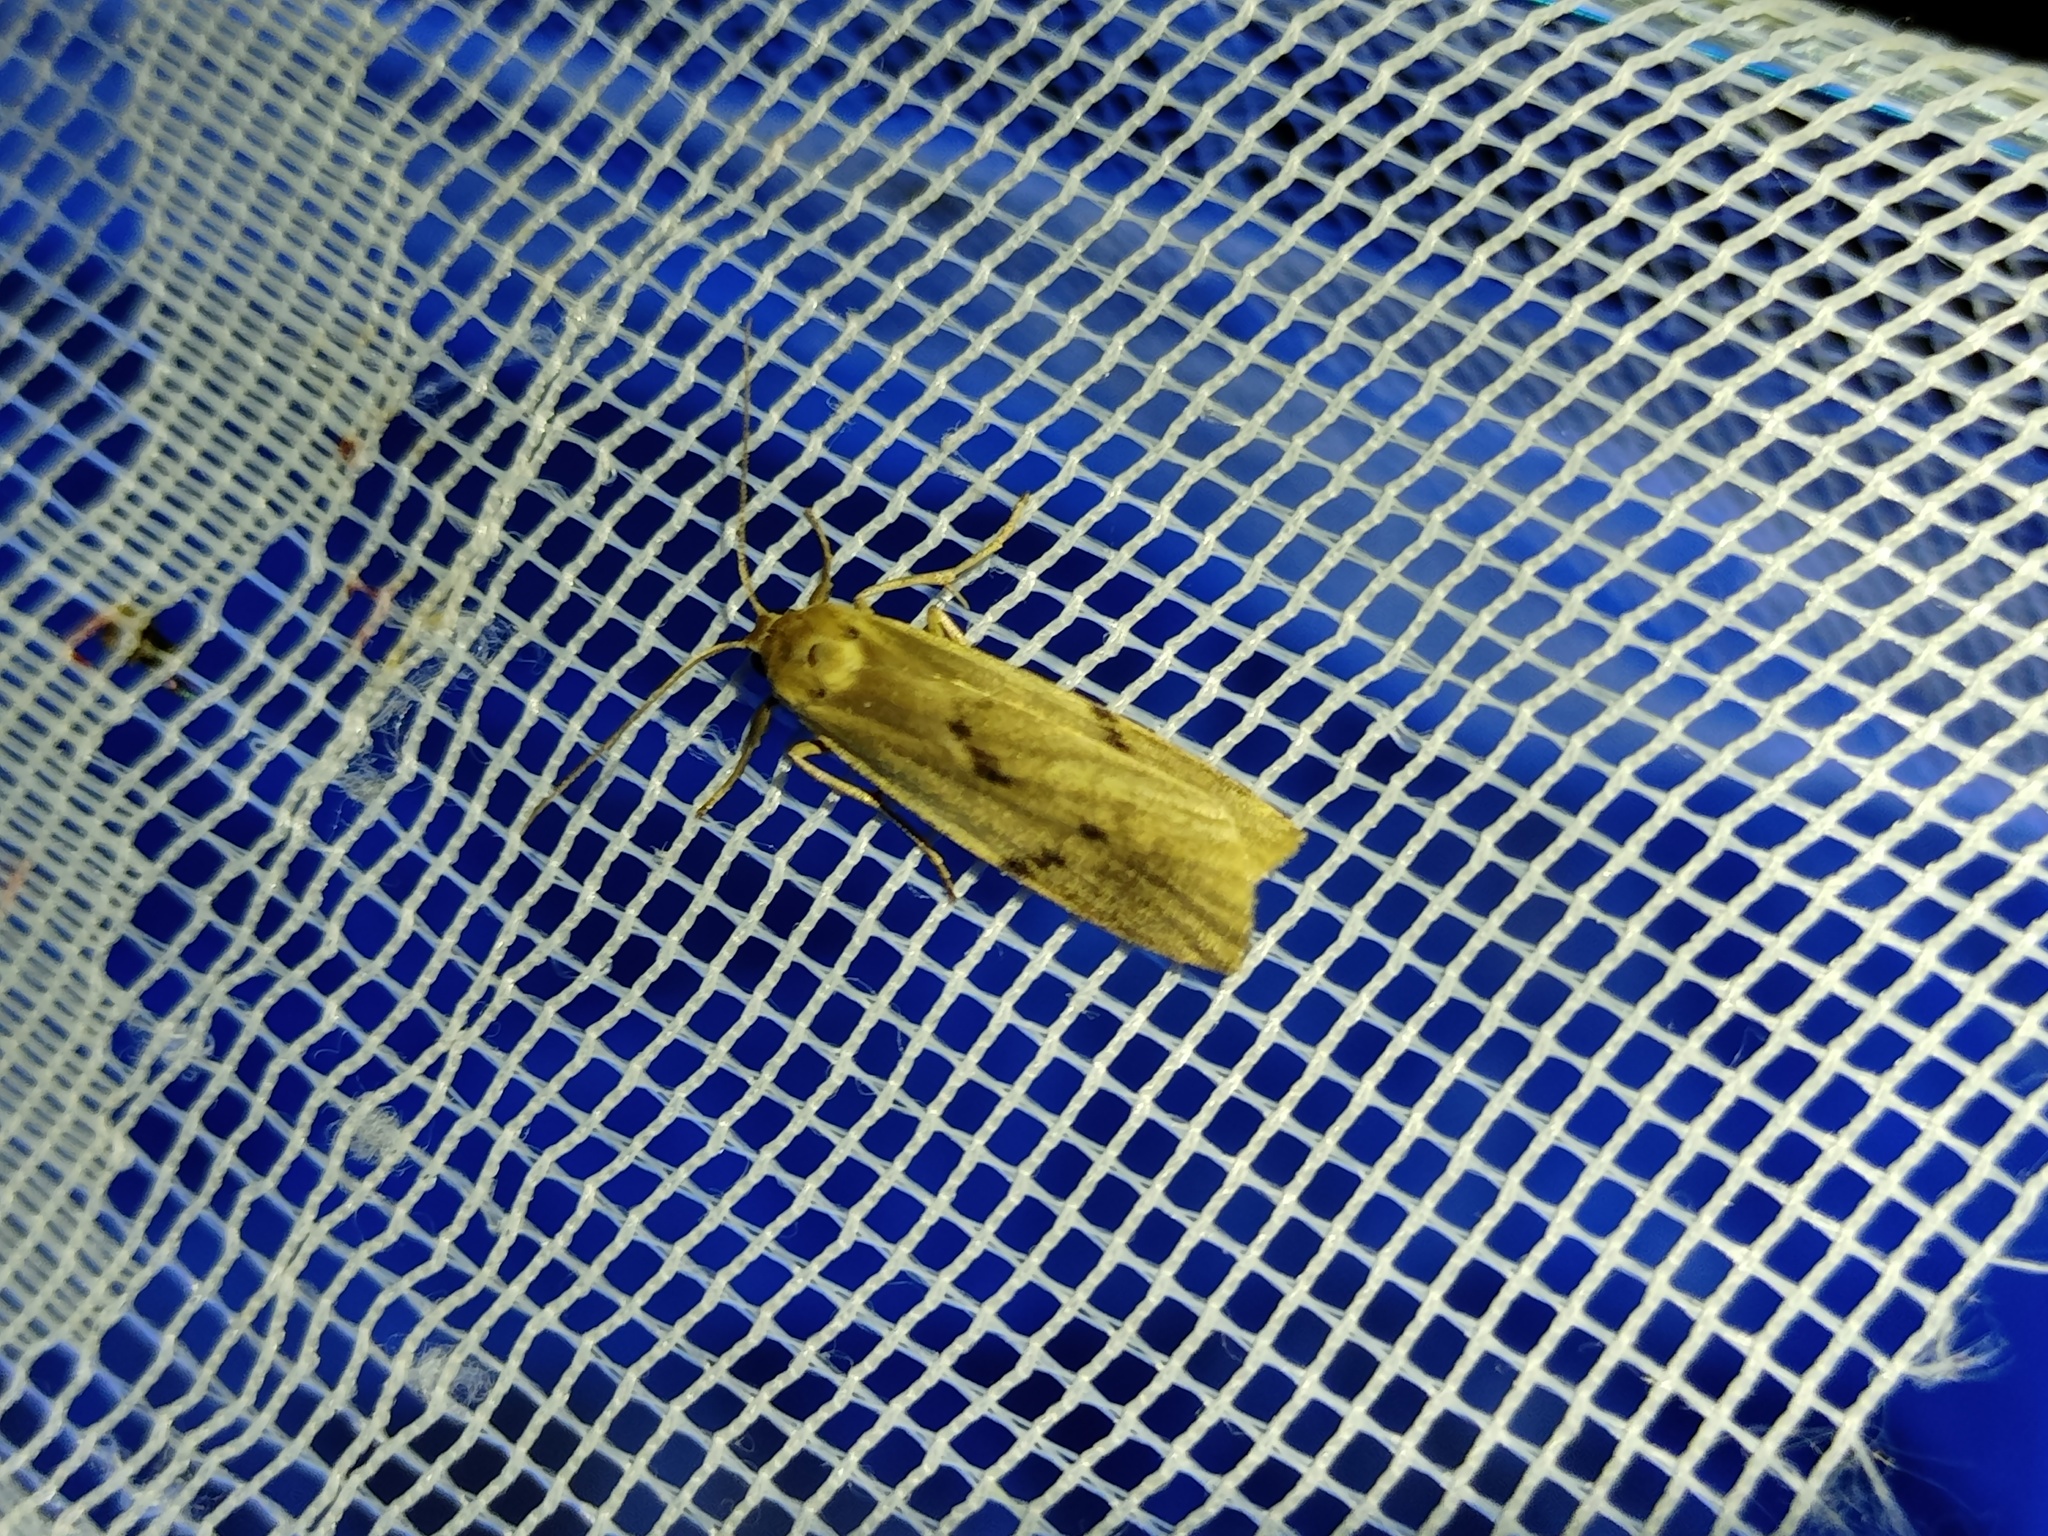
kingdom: Animalia
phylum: Arthropoda
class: Insecta
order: Lepidoptera
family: Erebidae
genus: Pelosia
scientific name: Pelosia muscerda
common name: Dotted footman
